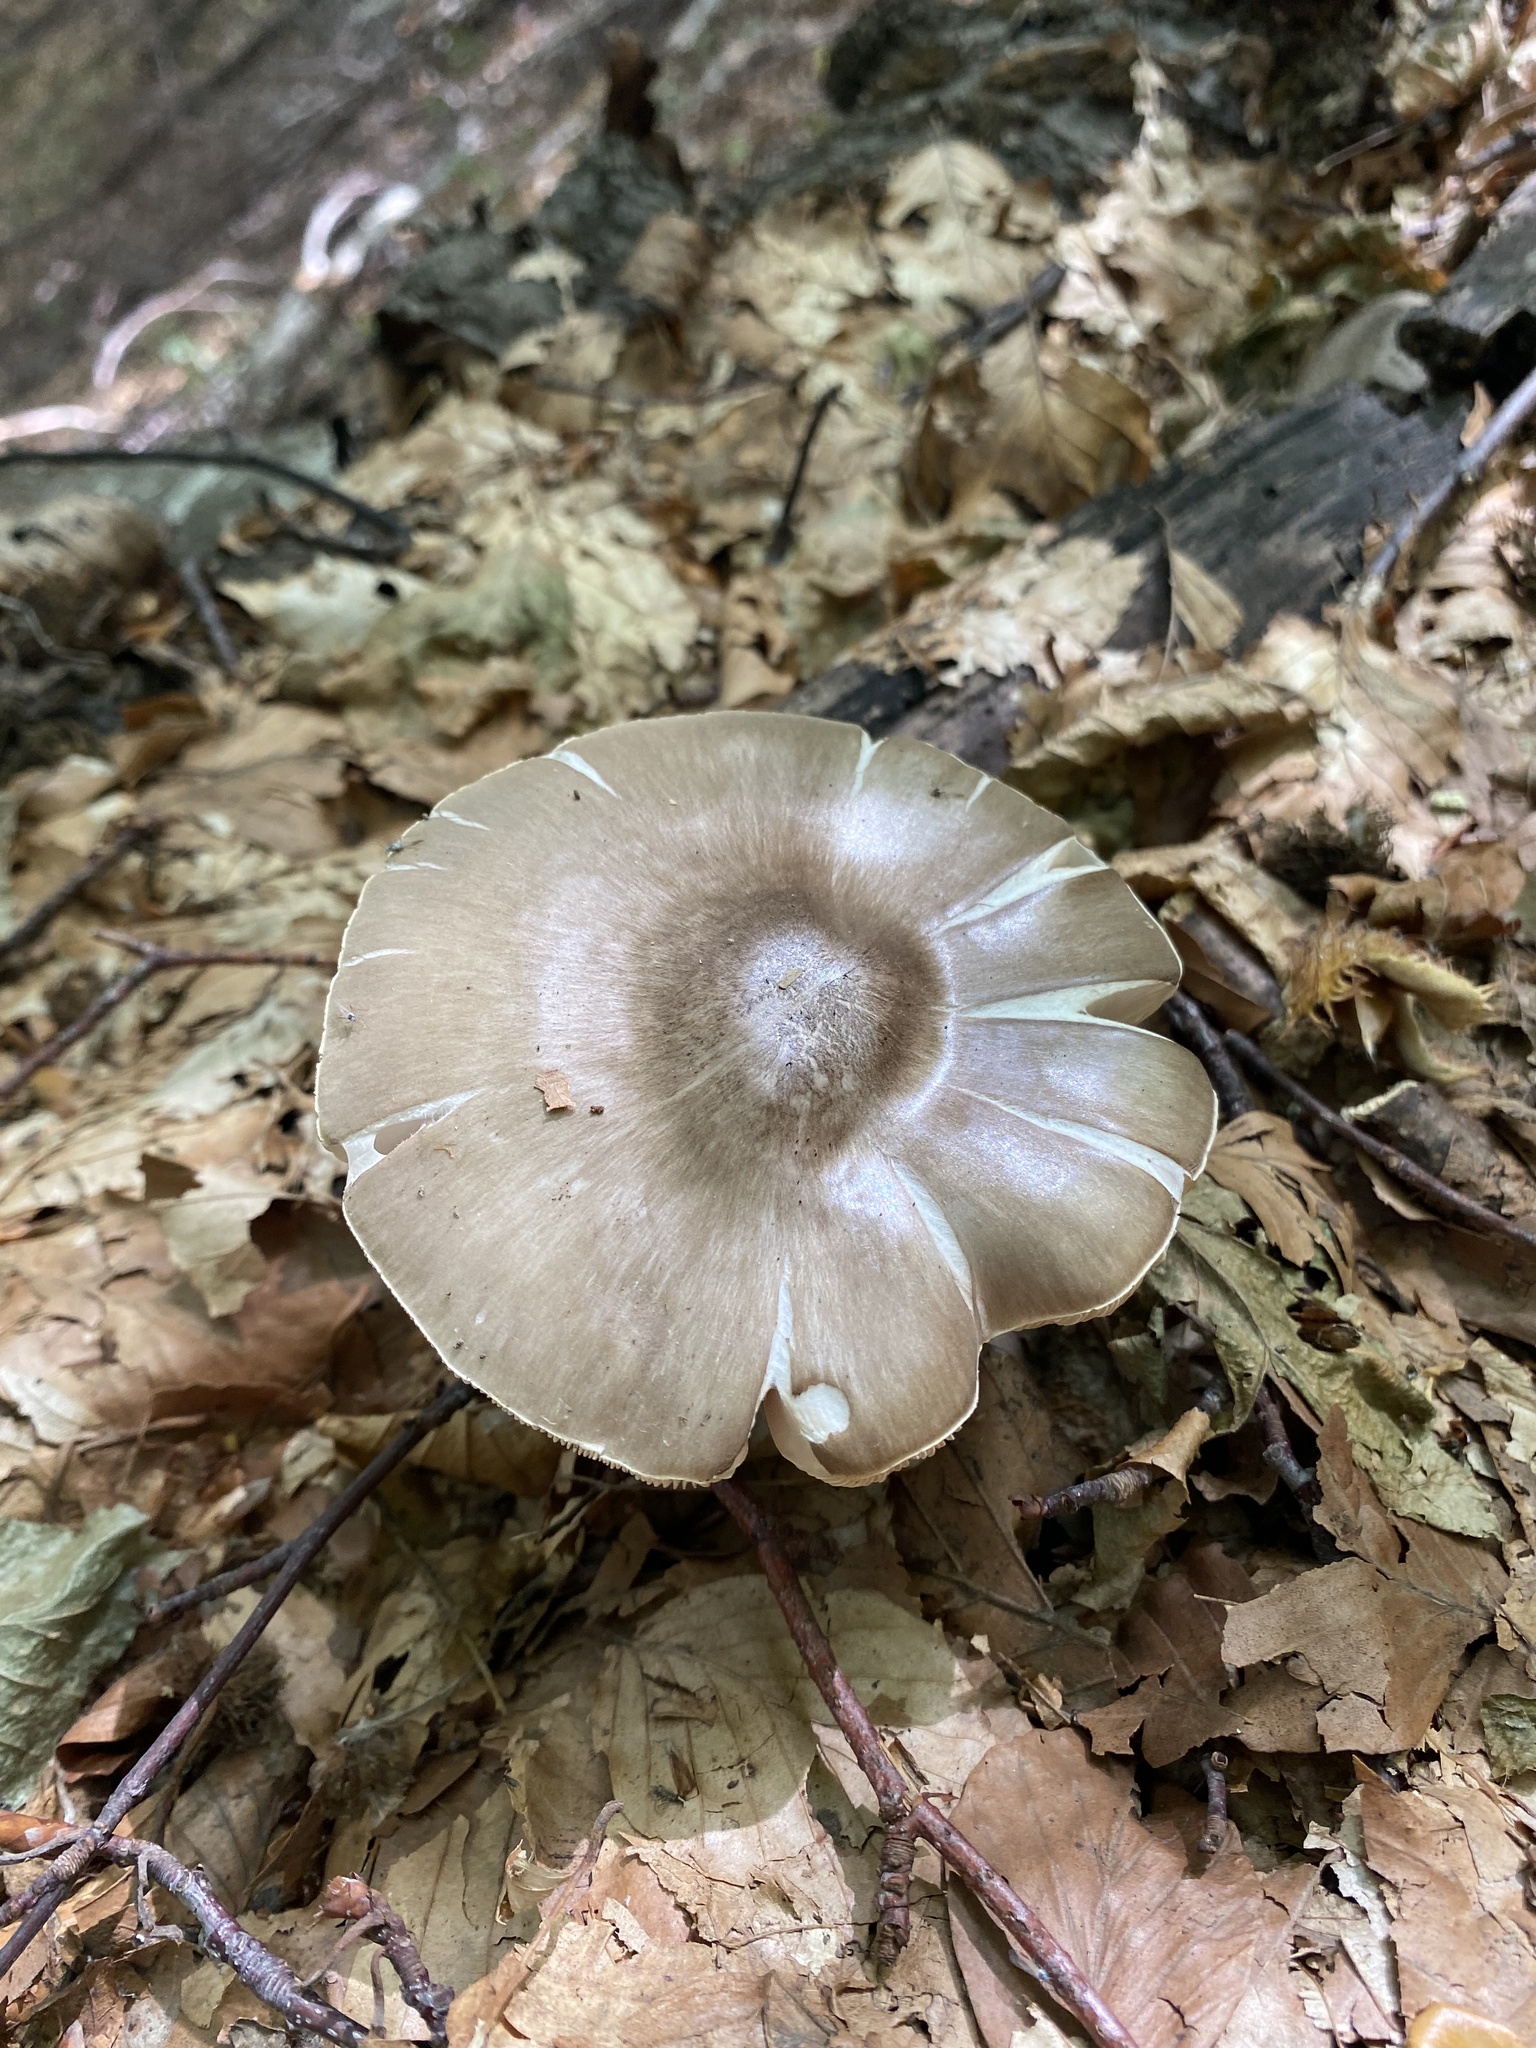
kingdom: Fungi
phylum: Basidiomycota
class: Agaricomycetes
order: Agaricales
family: Pluteaceae
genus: Pluteus
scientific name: Pluteus cervinus
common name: Deer shield
